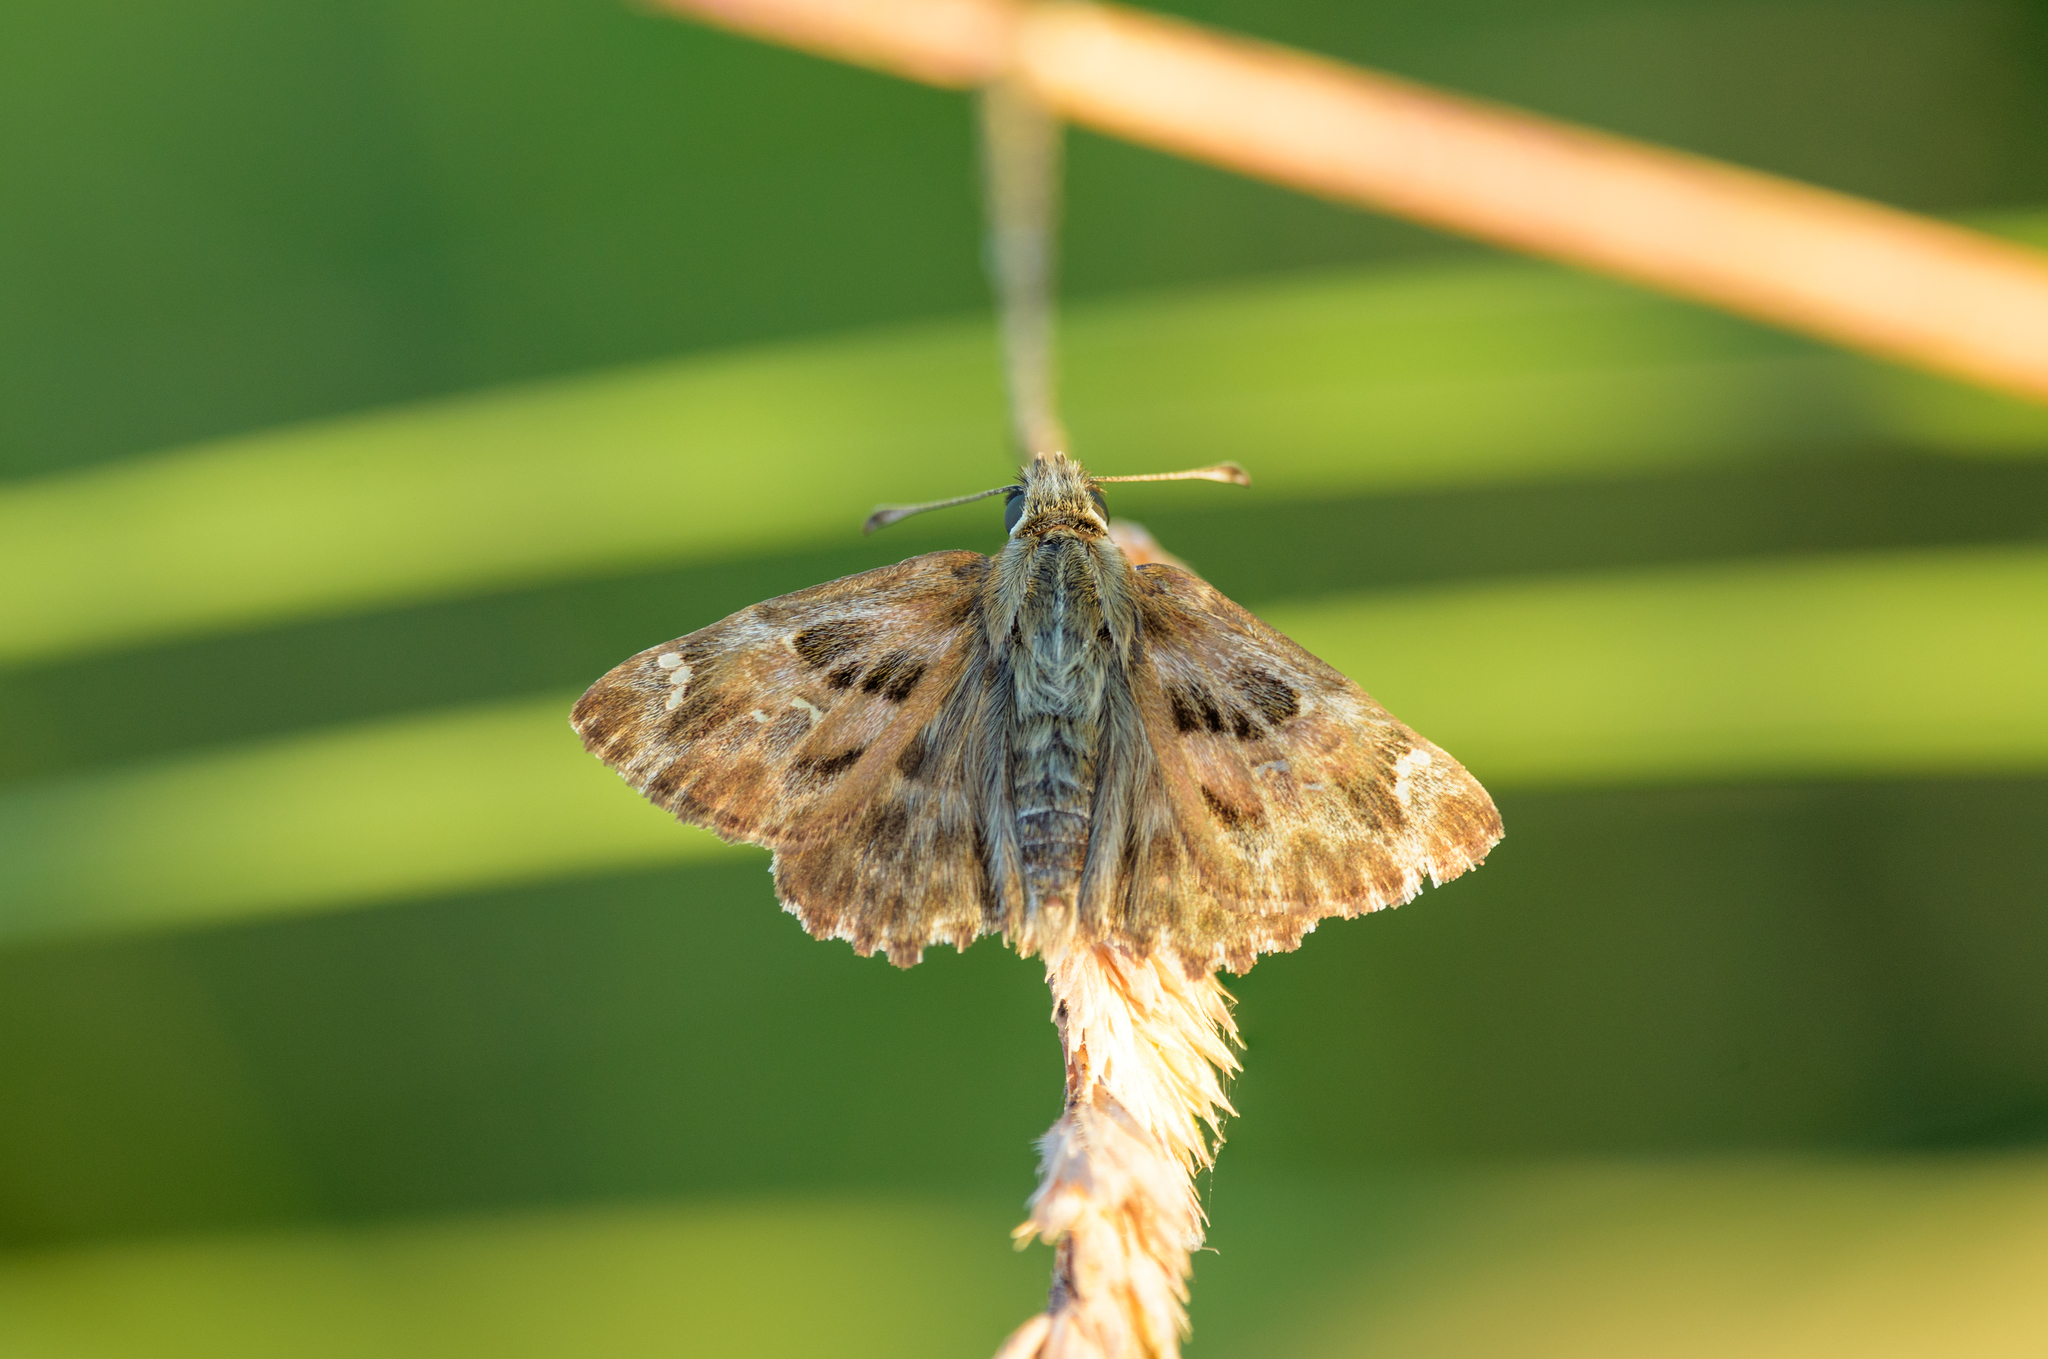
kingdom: Animalia
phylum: Arthropoda
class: Insecta
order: Lepidoptera
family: Hesperiidae
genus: Carcharodus
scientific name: Carcharodus alceae
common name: Mallow skipper
